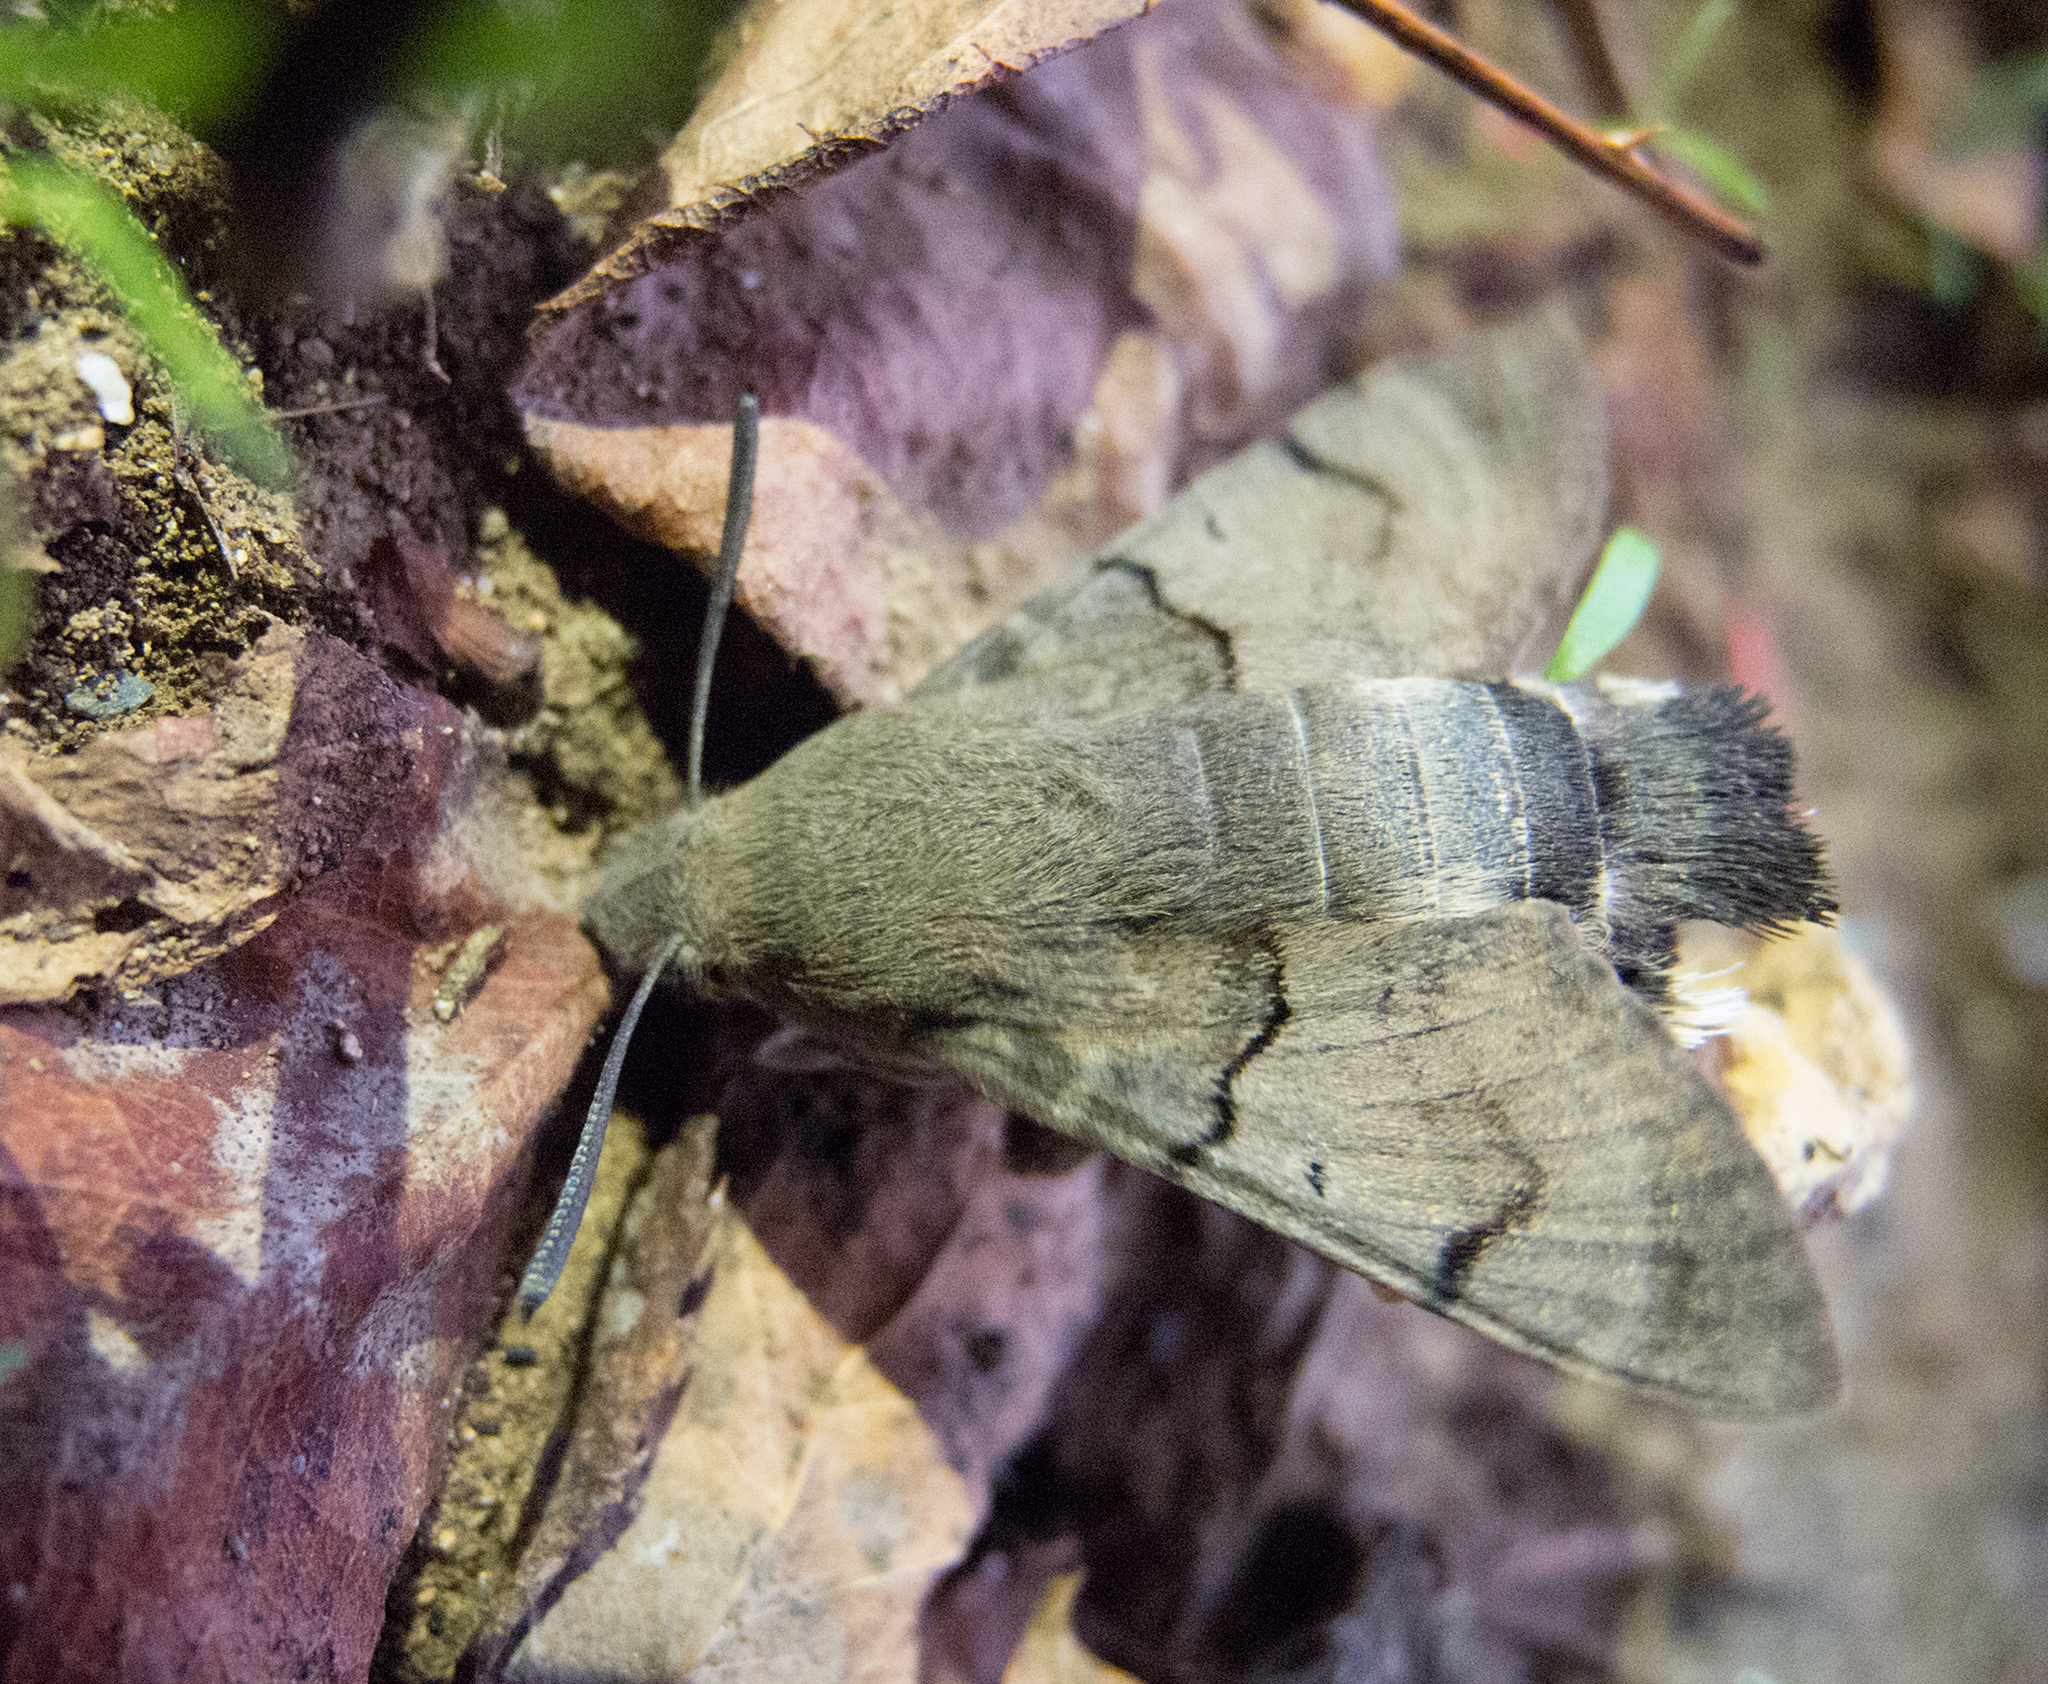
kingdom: Animalia
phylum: Arthropoda
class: Insecta
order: Lepidoptera
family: Sphingidae
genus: Macroglossum
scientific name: Macroglossum stellatarum
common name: Humming-bird hawk-moth
